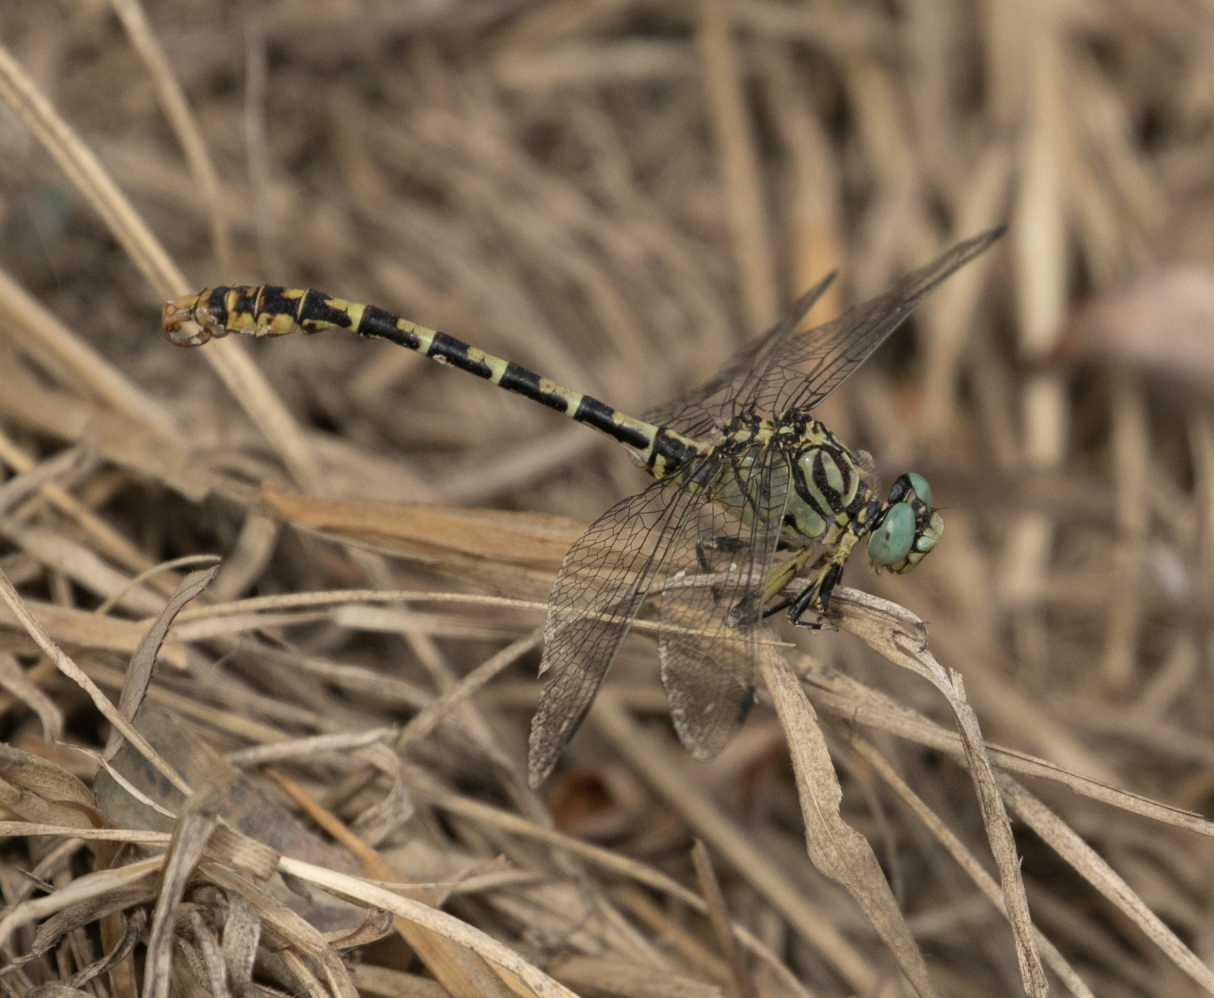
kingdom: Animalia
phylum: Arthropoda
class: Insecta
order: Odonata
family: Gomphidae
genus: Onychogomphus
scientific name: Onychogomphus forcipatus
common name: Small pincertail
